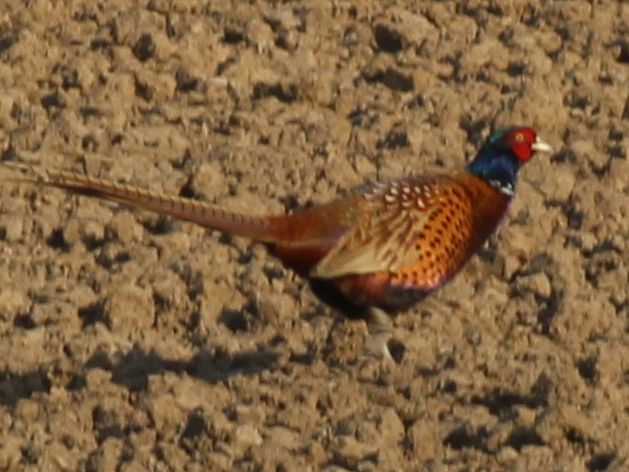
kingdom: Animalia
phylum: Chordata
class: Aves
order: Galliformes
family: Phasianidae
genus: Phasianus
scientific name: Phasianus colchicus
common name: Common pheasant
